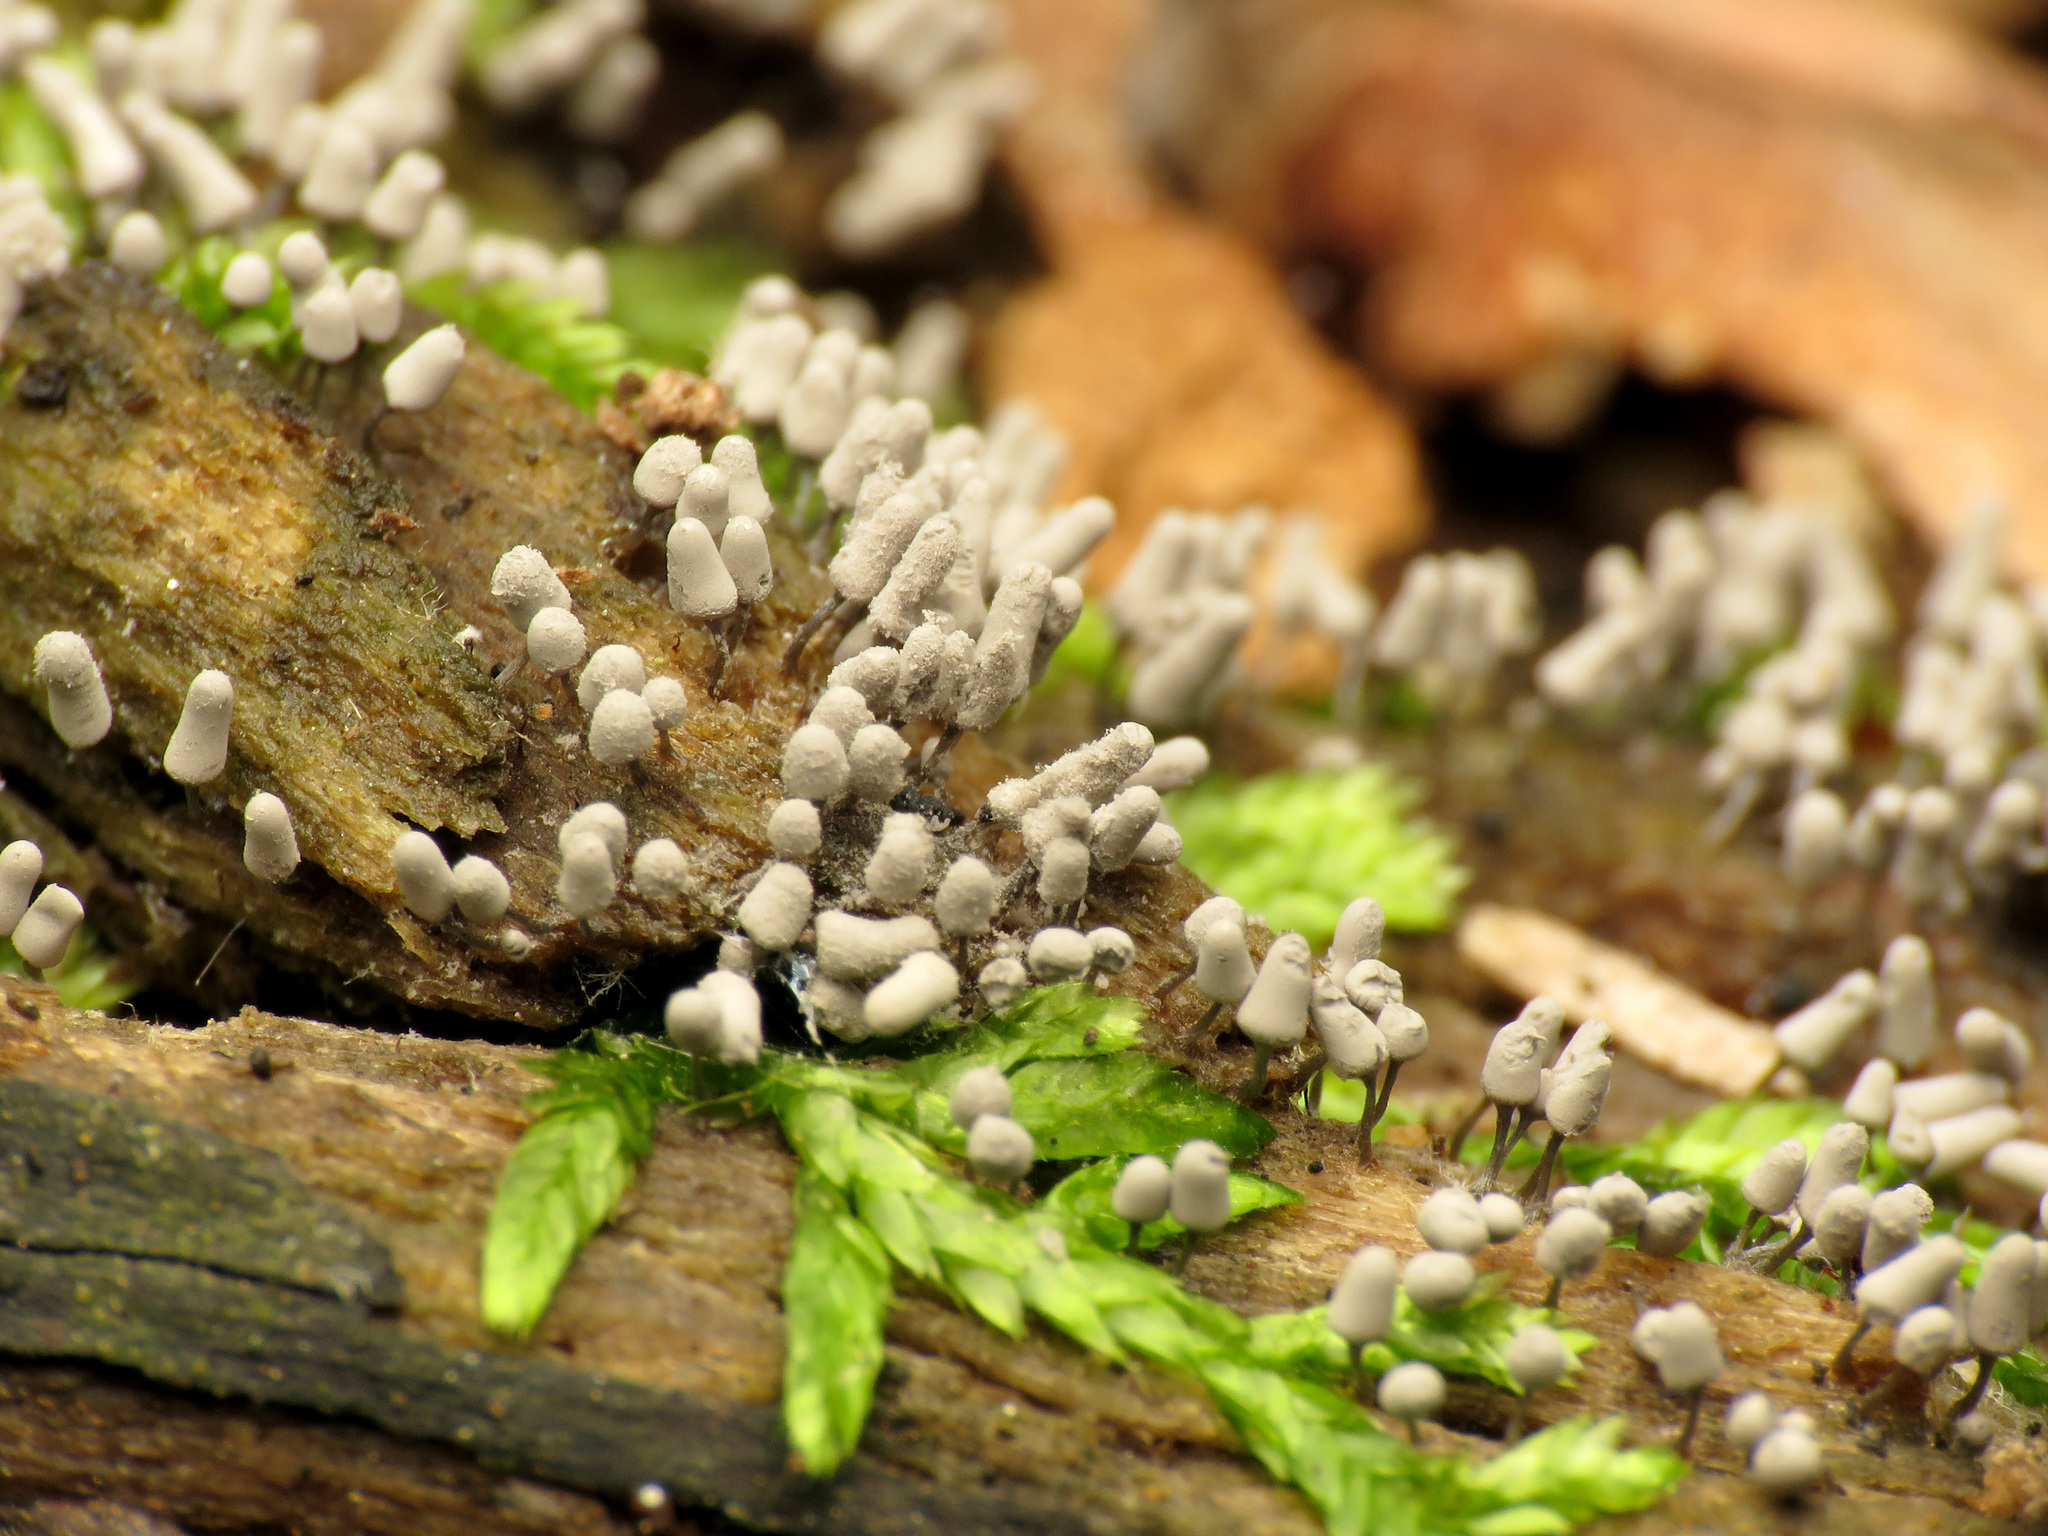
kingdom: Protozoa
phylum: Mycetozoa
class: Myxomycetes
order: Trichiales
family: Arcyriaceae
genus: Arcyria
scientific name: Arcyria cinerea
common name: White carnival candy slime mold
